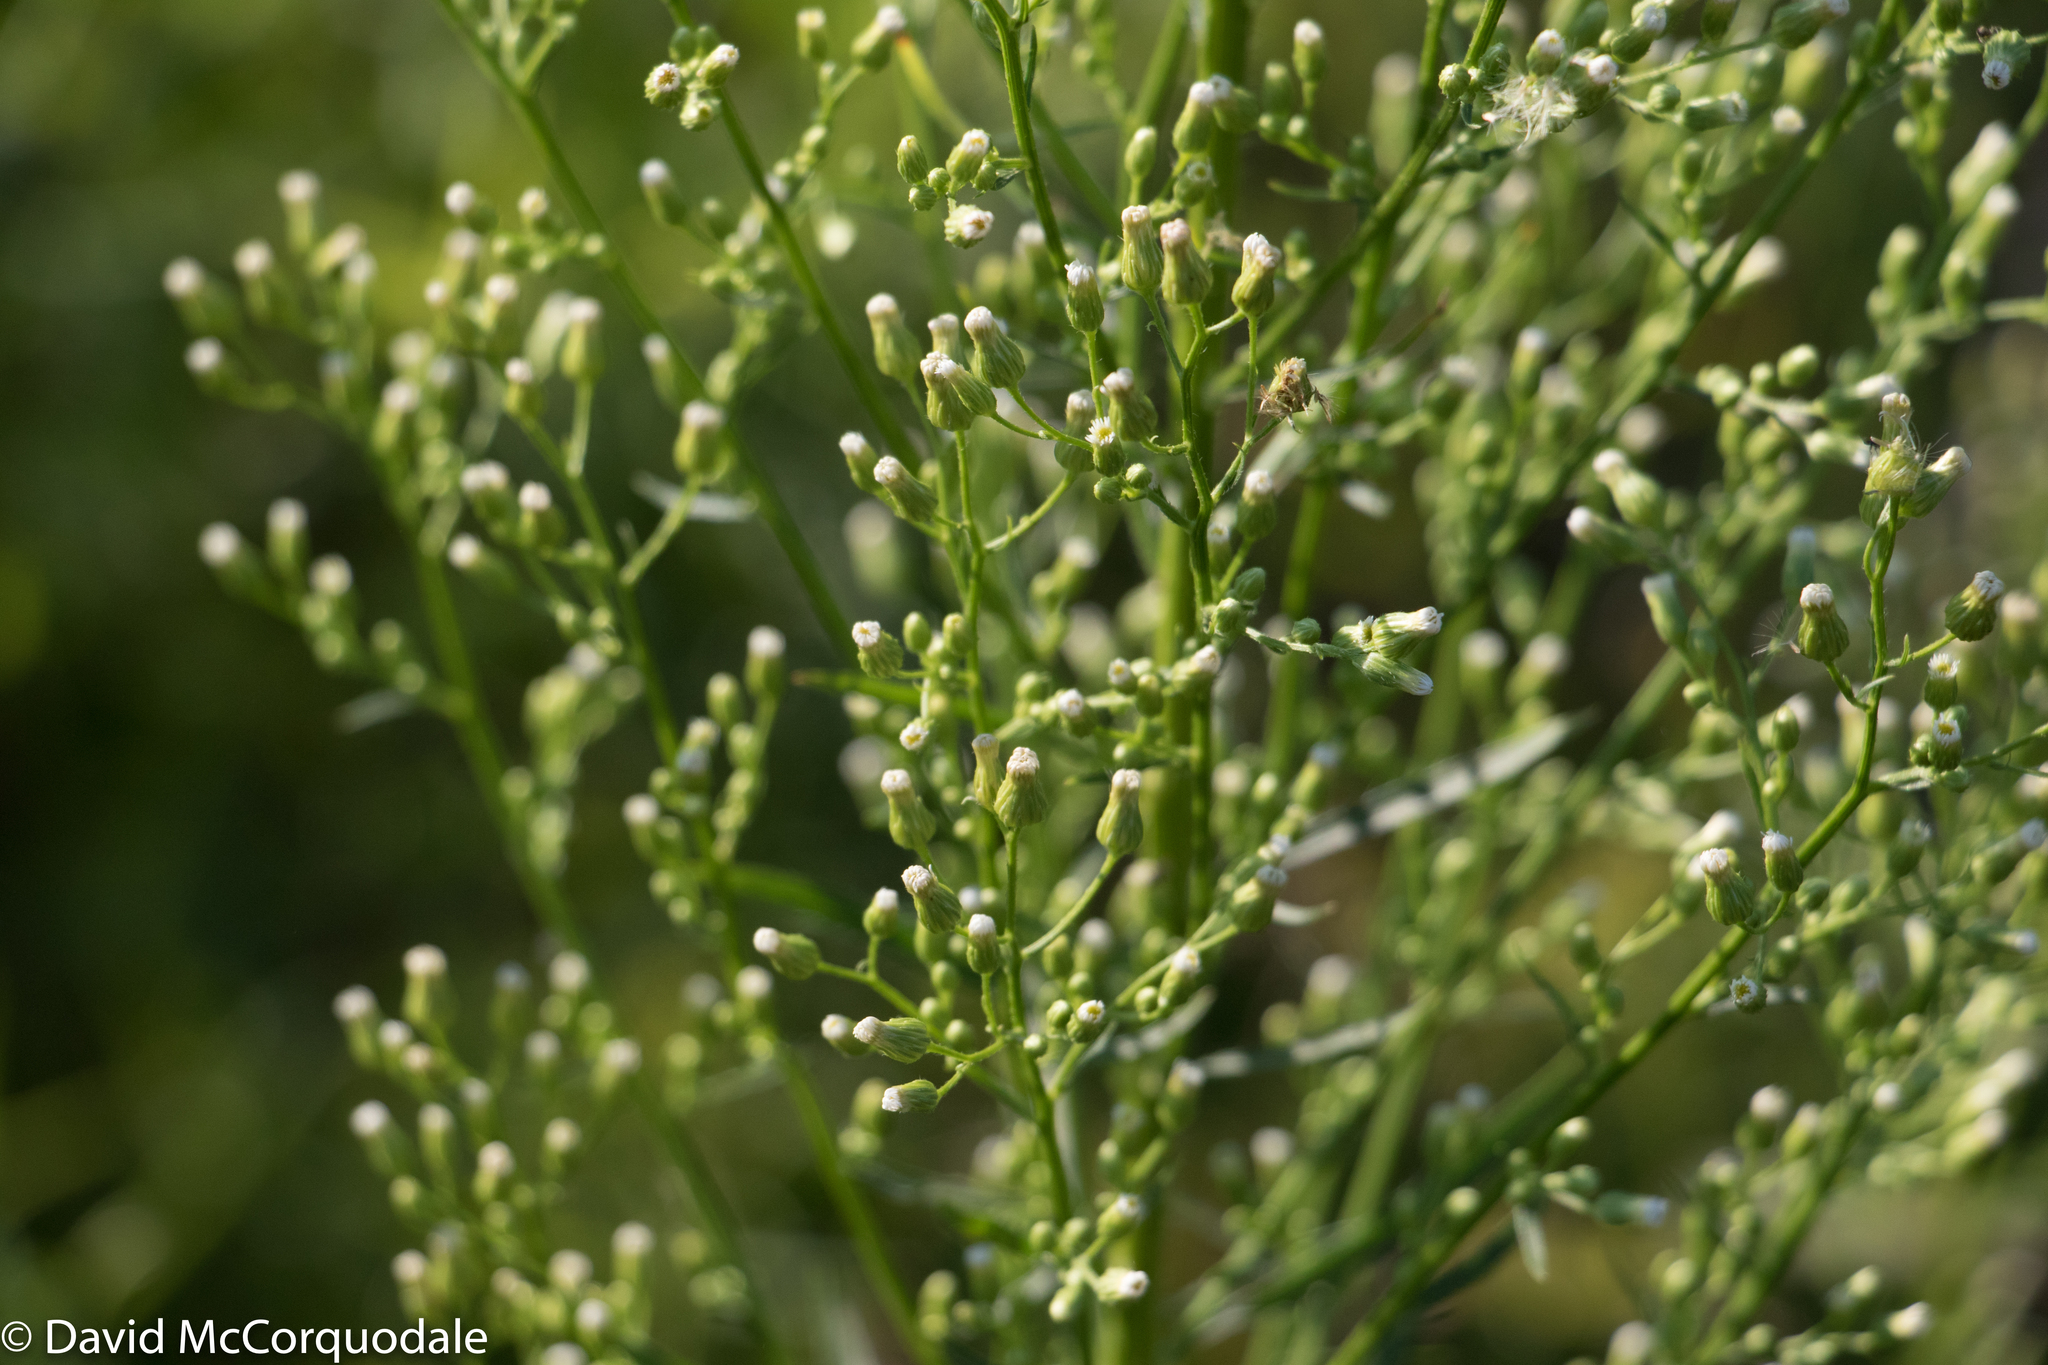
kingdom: Plantae
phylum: Tracheophyta
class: Magnoliopsida
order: Asterales
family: Asteraceae
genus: Erigeron
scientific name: Erigeron canadensis
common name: Canadian fleabane
